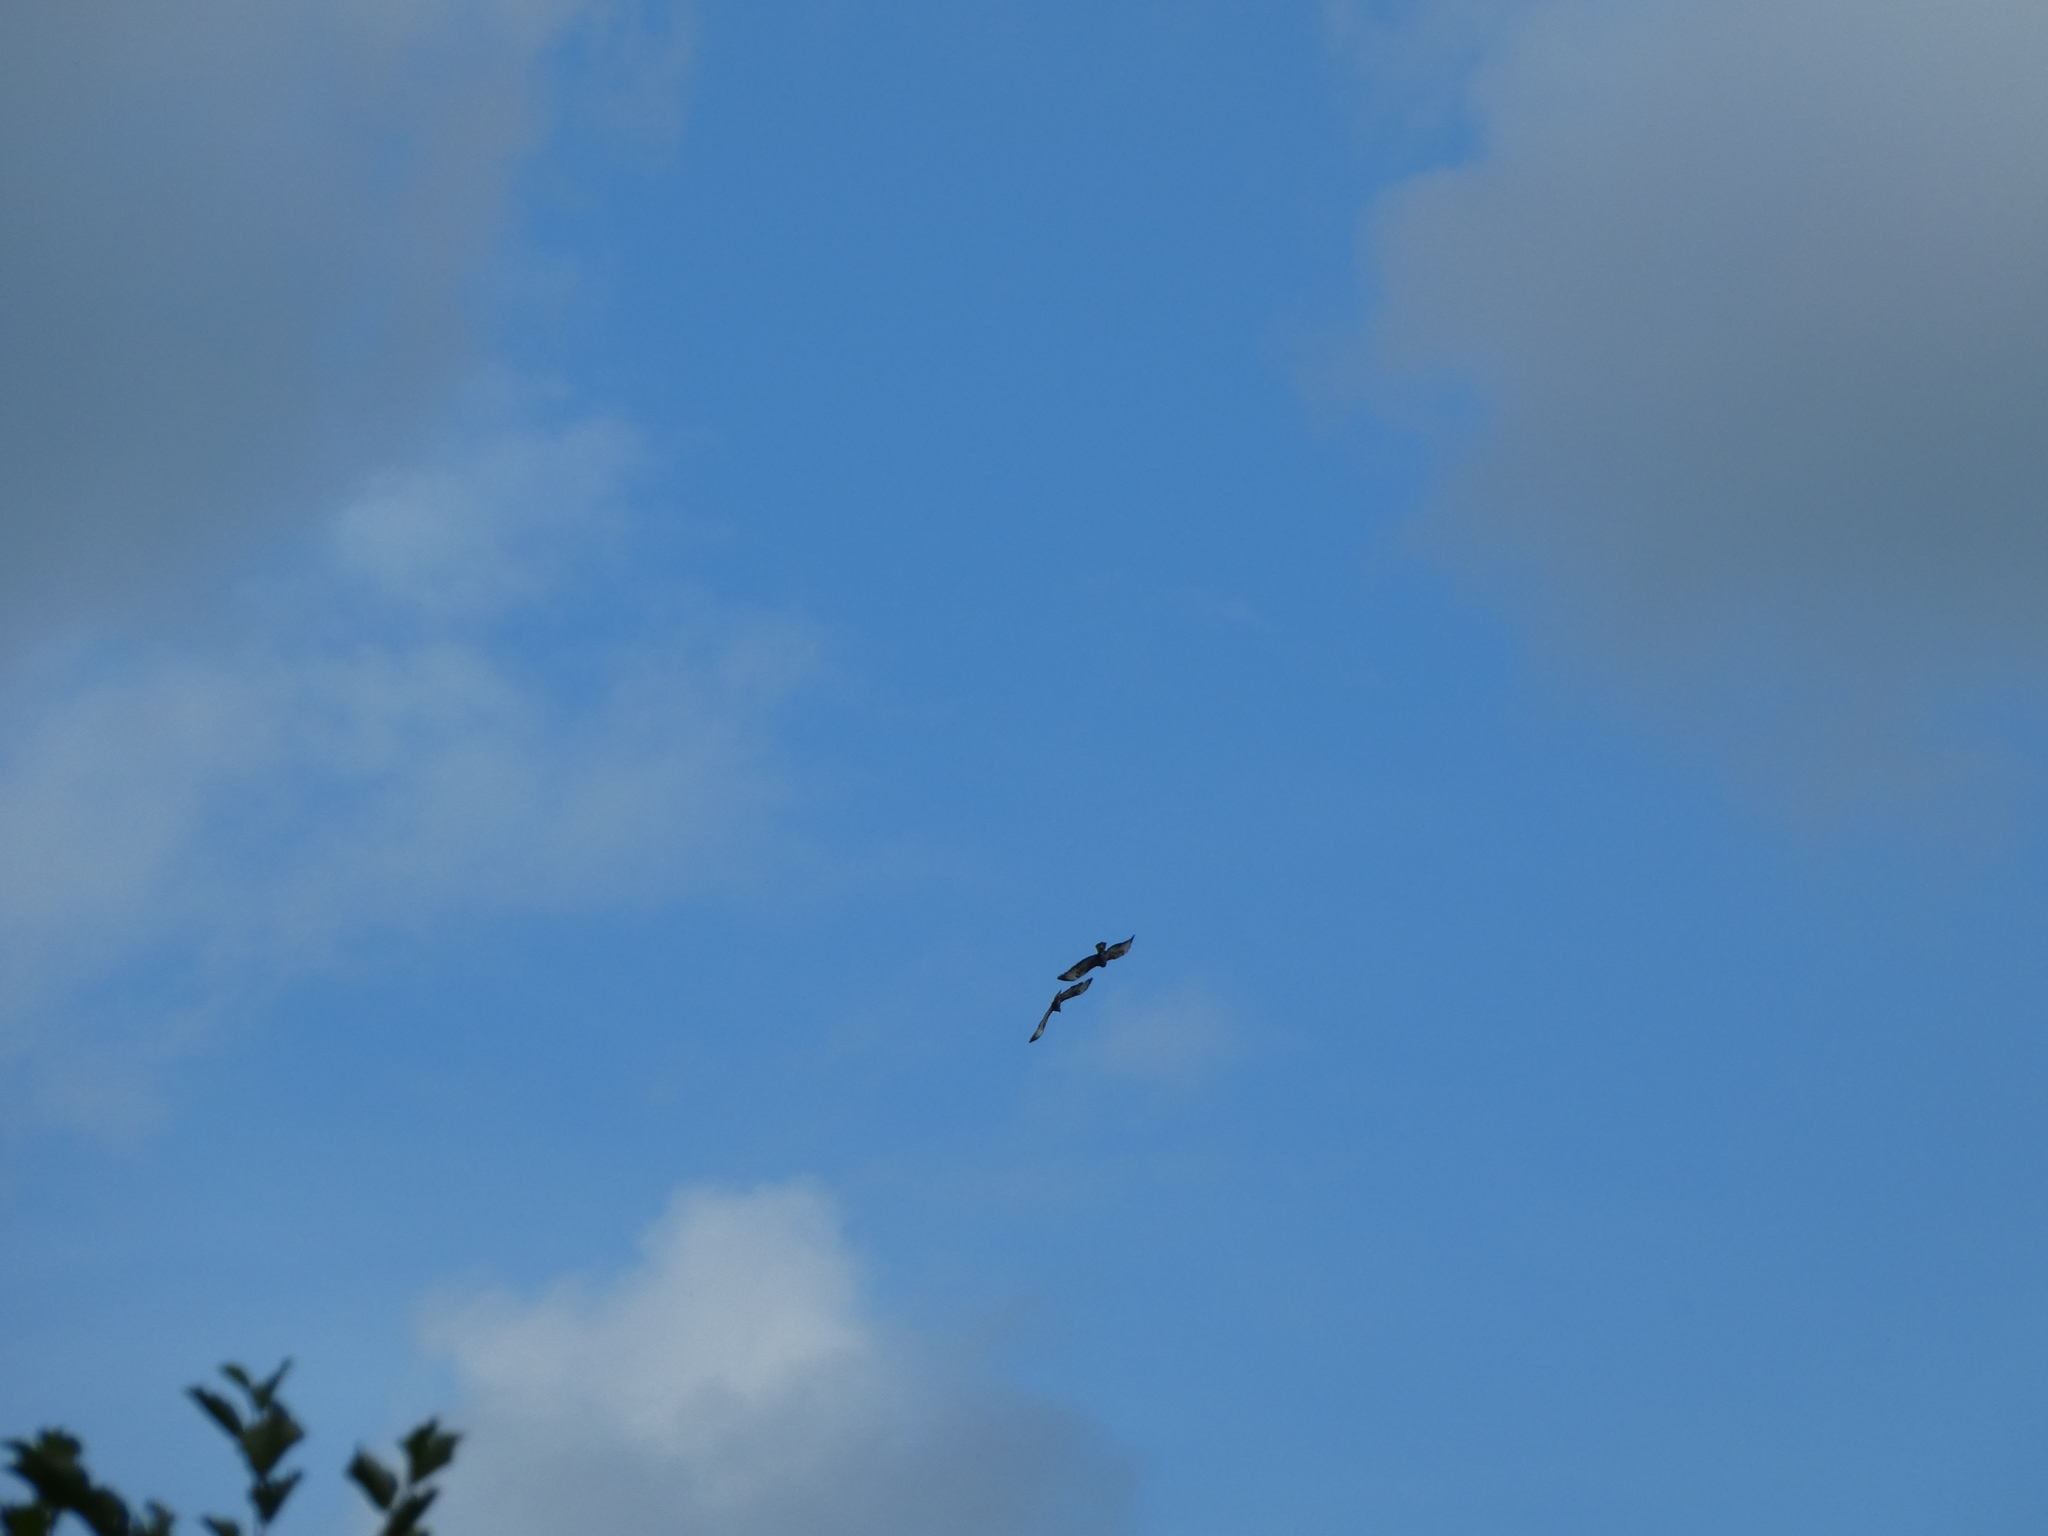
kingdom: Animalia
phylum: Chordata
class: Aves
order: Accipitriformes
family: Accipitridae
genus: Buteo
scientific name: Buteo buteo
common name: Common buzzard
